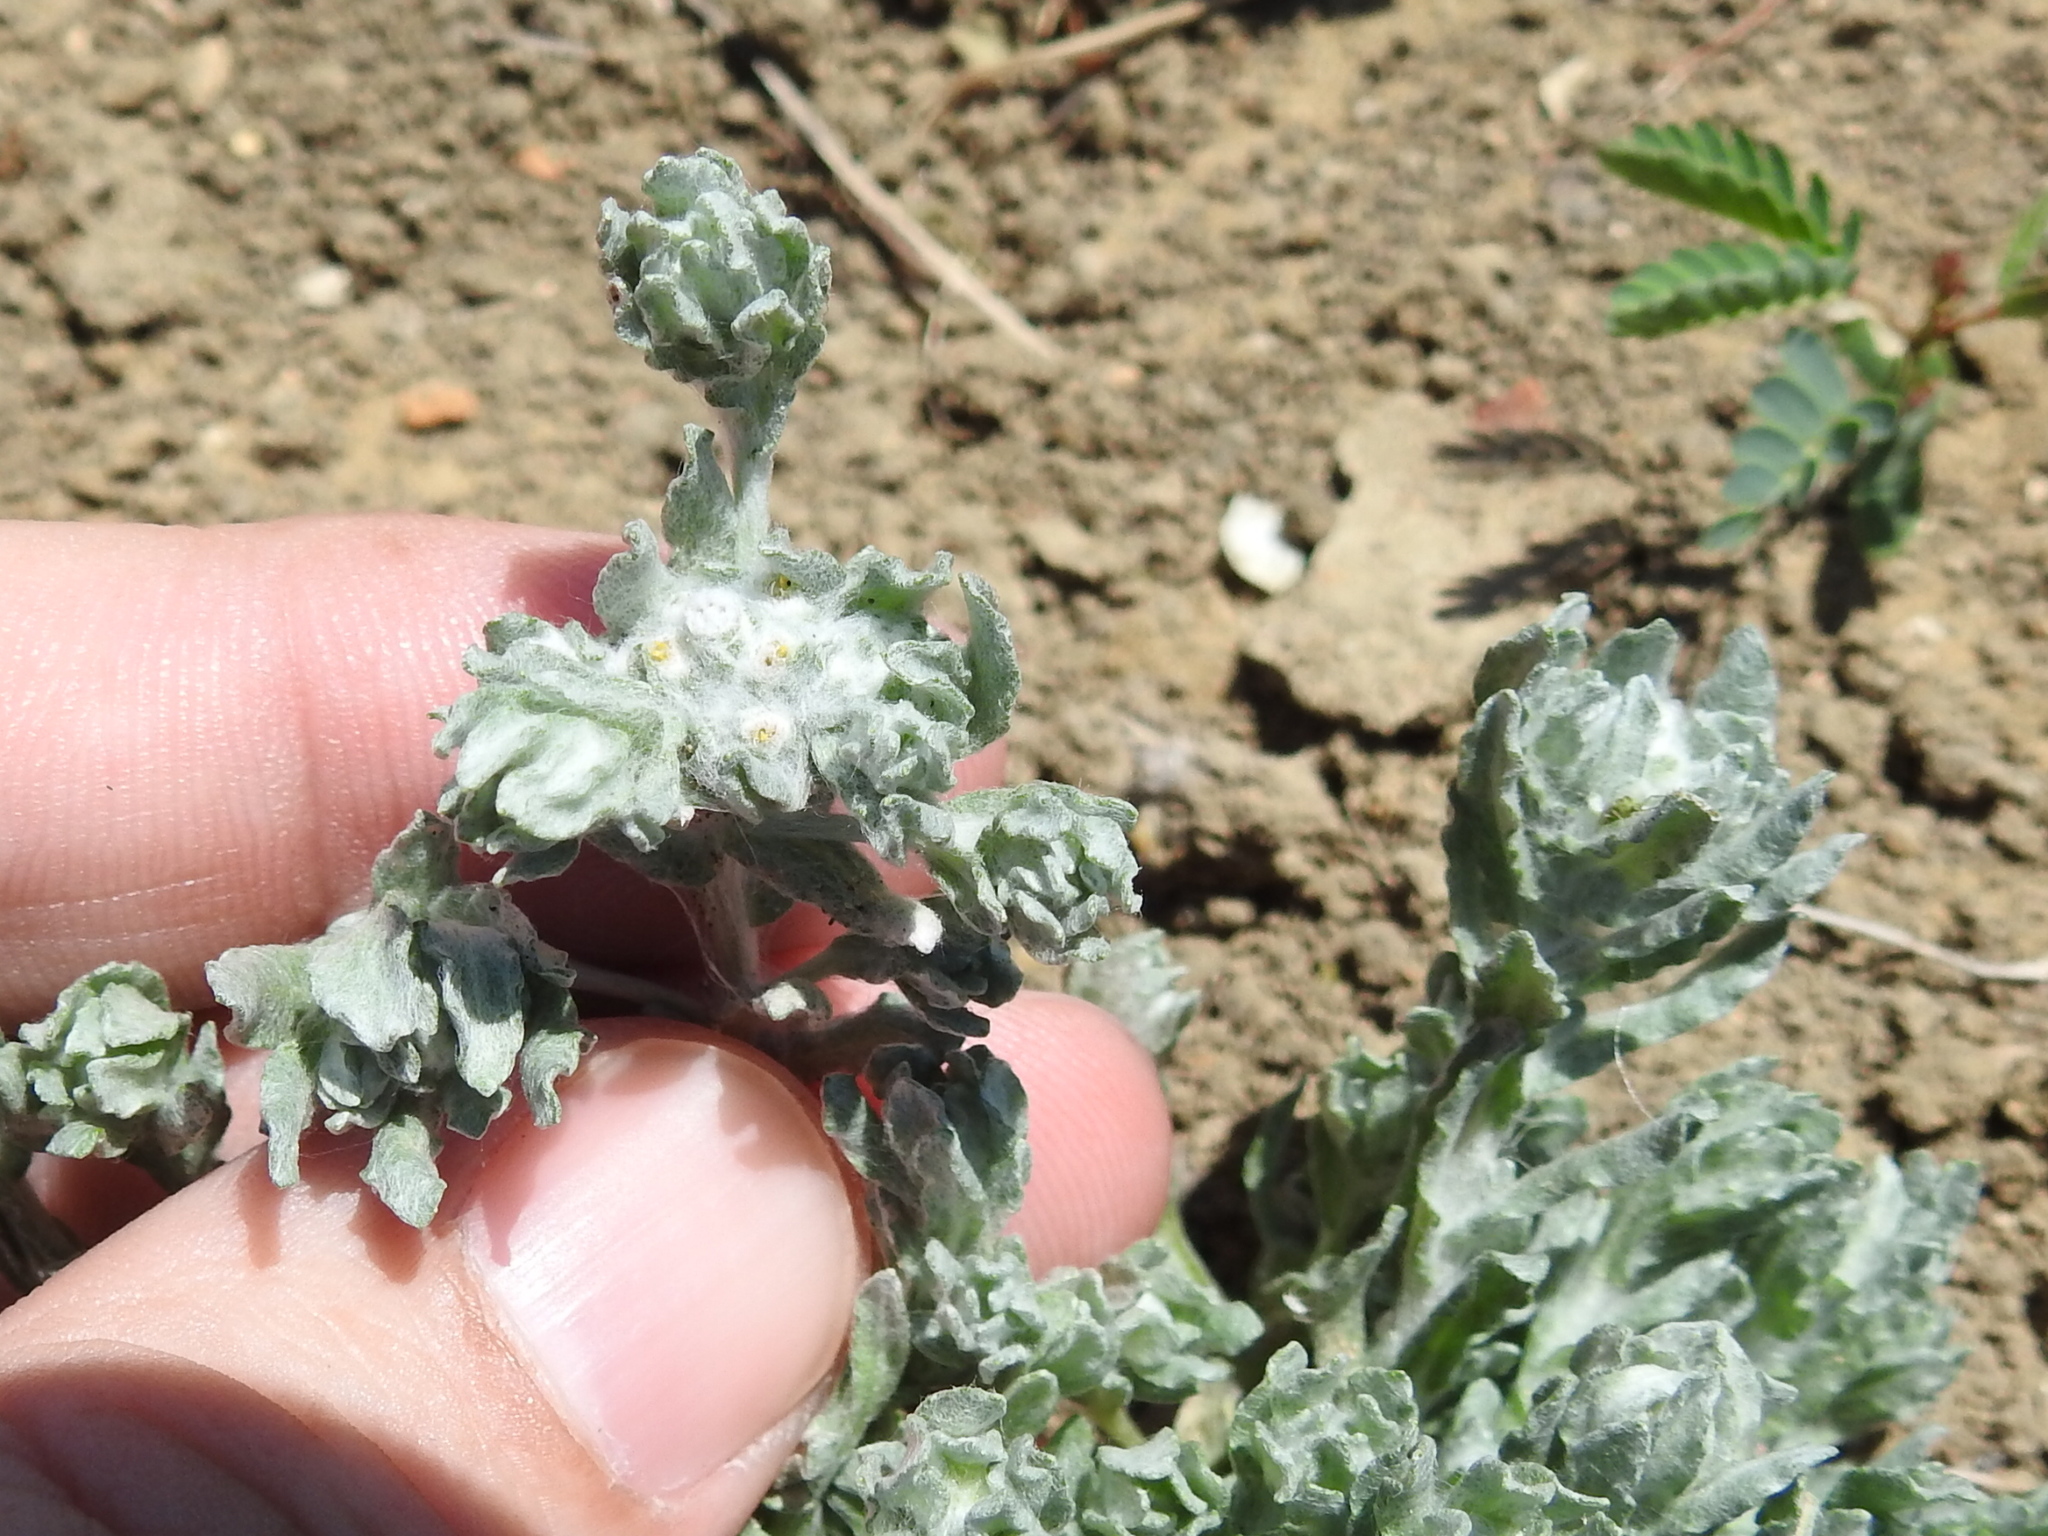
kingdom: Plantae
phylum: Tracheophyta
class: Magnoliopsida
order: Asterales
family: Asteraceae
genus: Diaperia
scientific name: Diaperia prolifera
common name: Big-head rabbit-tobacco
